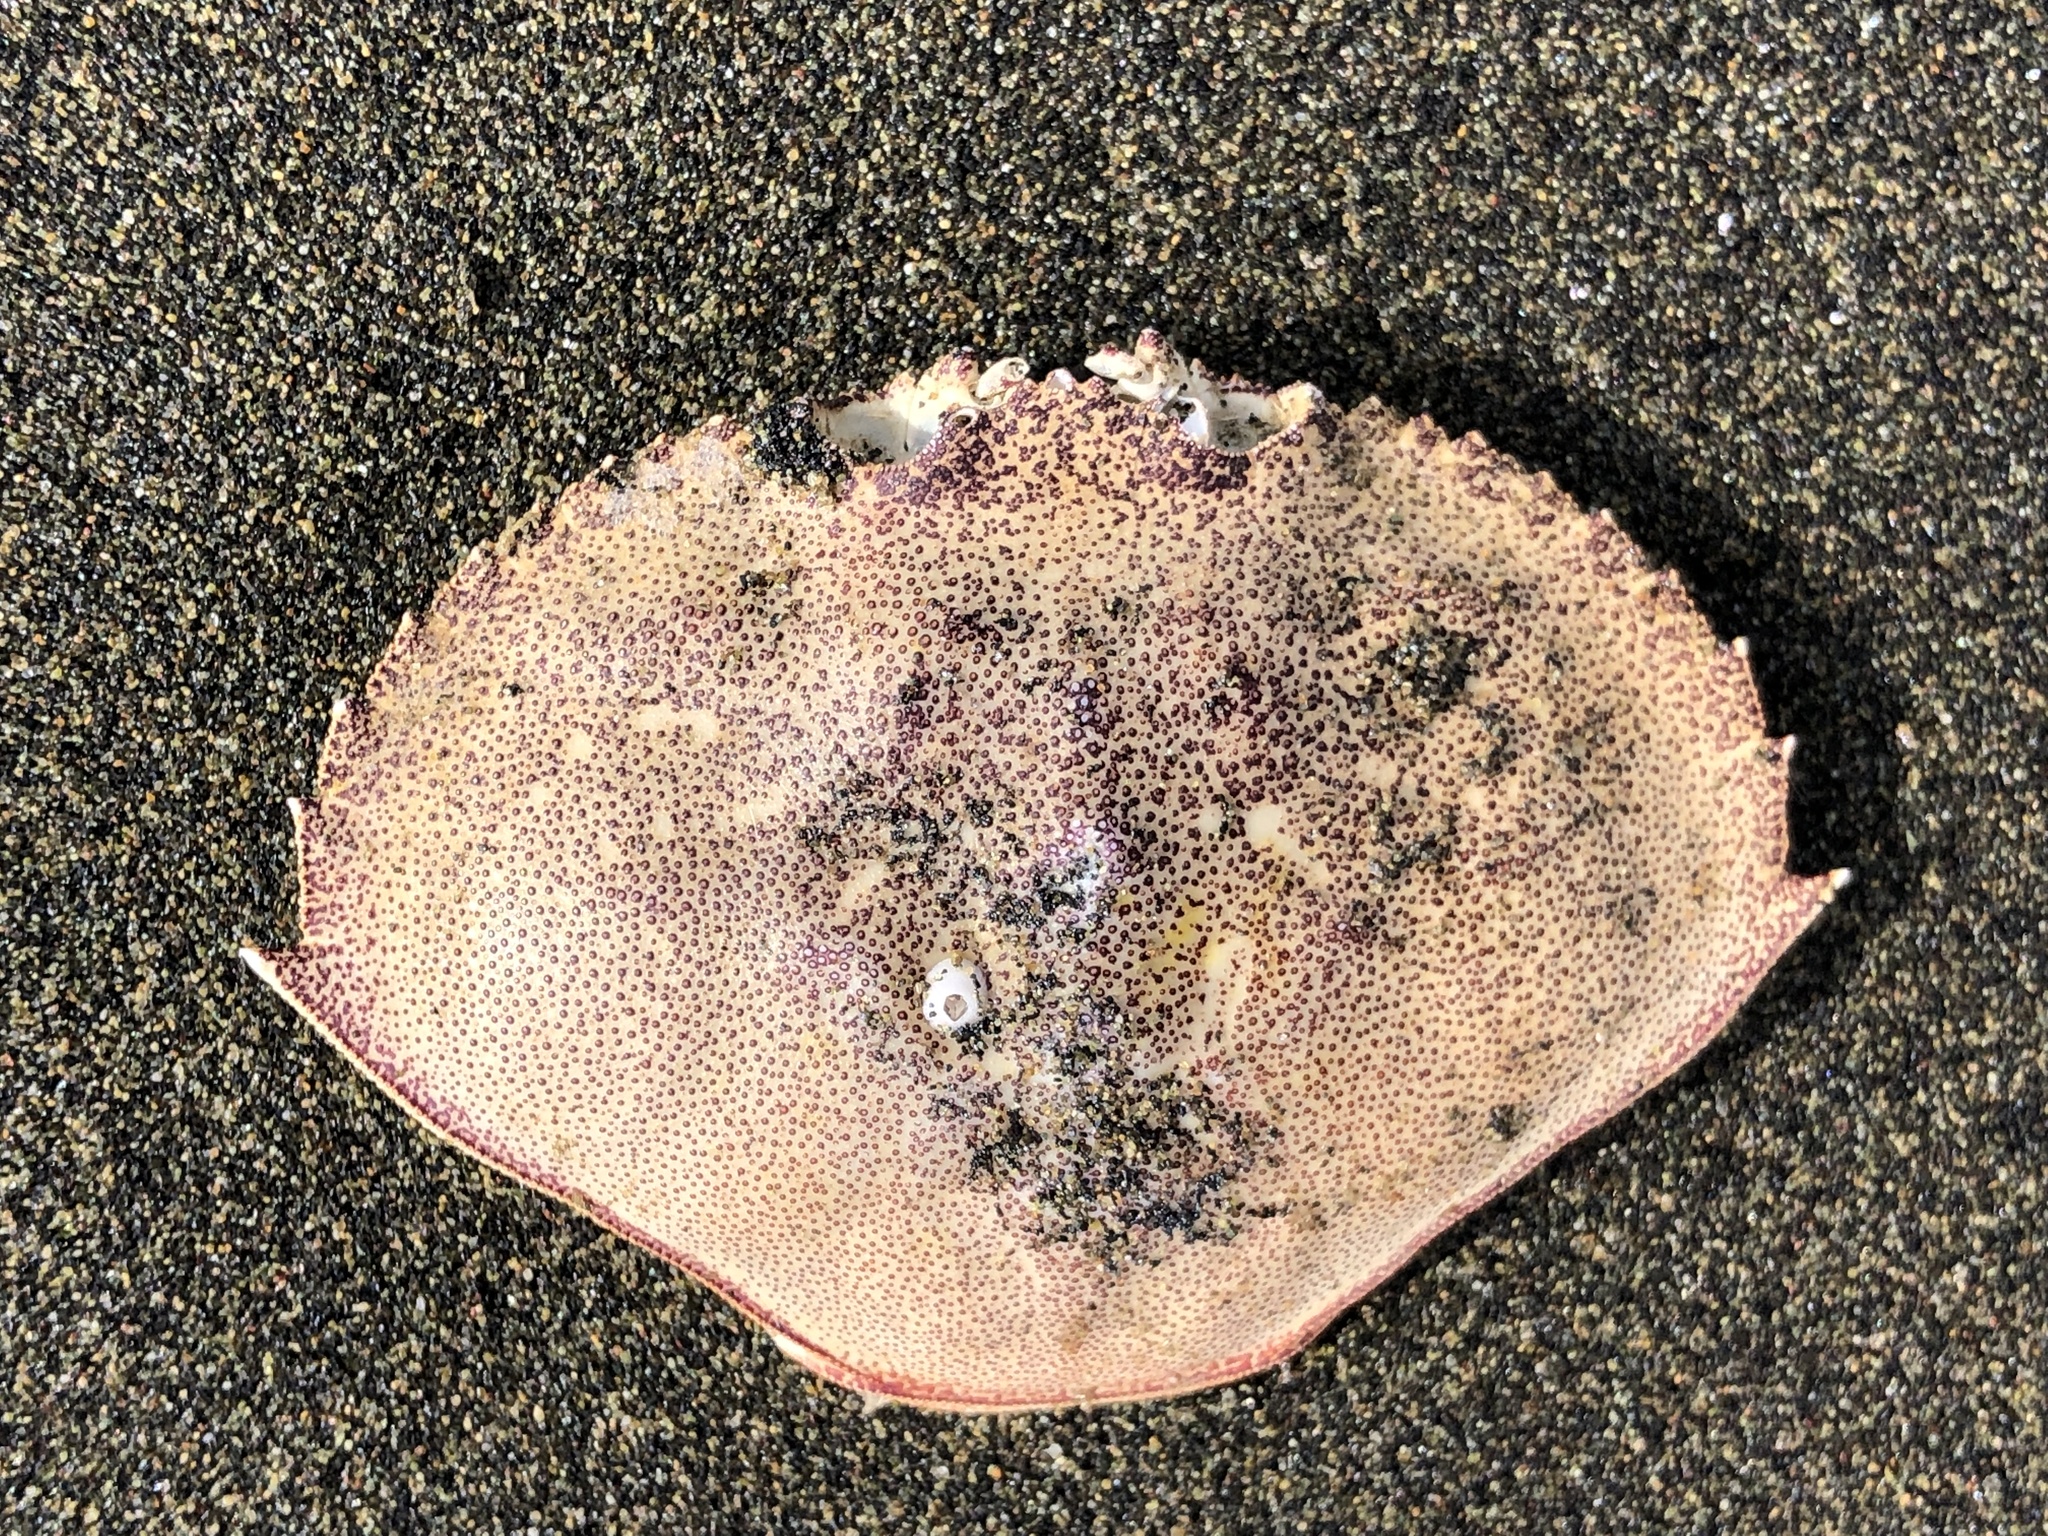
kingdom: Animalia
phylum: Arthropoda
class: Malacostraca
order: Decapoda
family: Cancridae
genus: Metacarcinus
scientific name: Metacarcinus magister
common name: Californian crab
